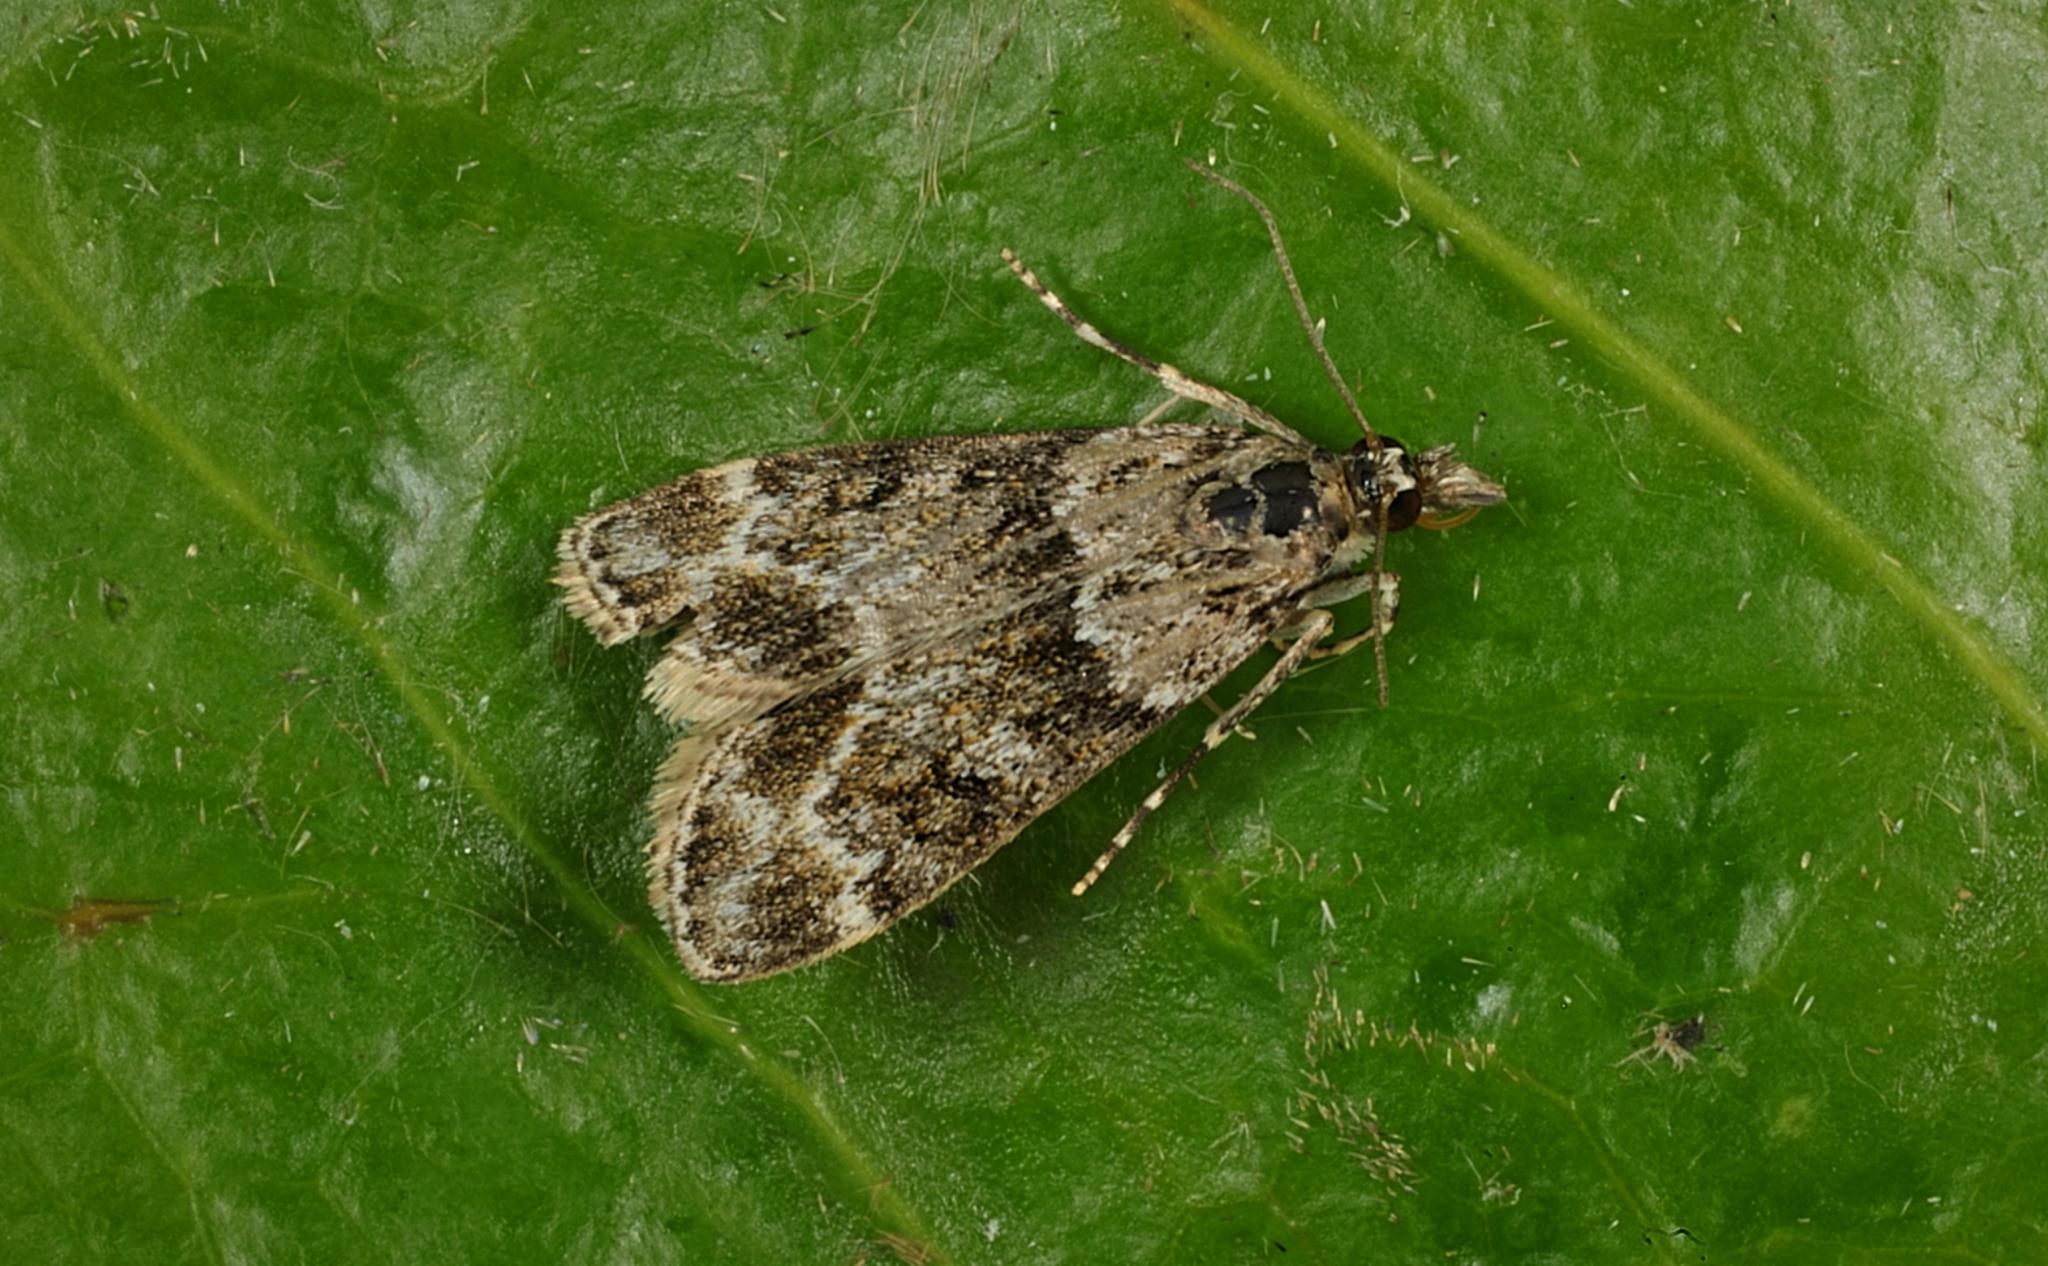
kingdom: Animalia
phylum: Arthropoda
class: Insecta
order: Lepidoptera
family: Crambidae
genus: Eudonia
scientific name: Eudonia mercurella
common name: Small grey
